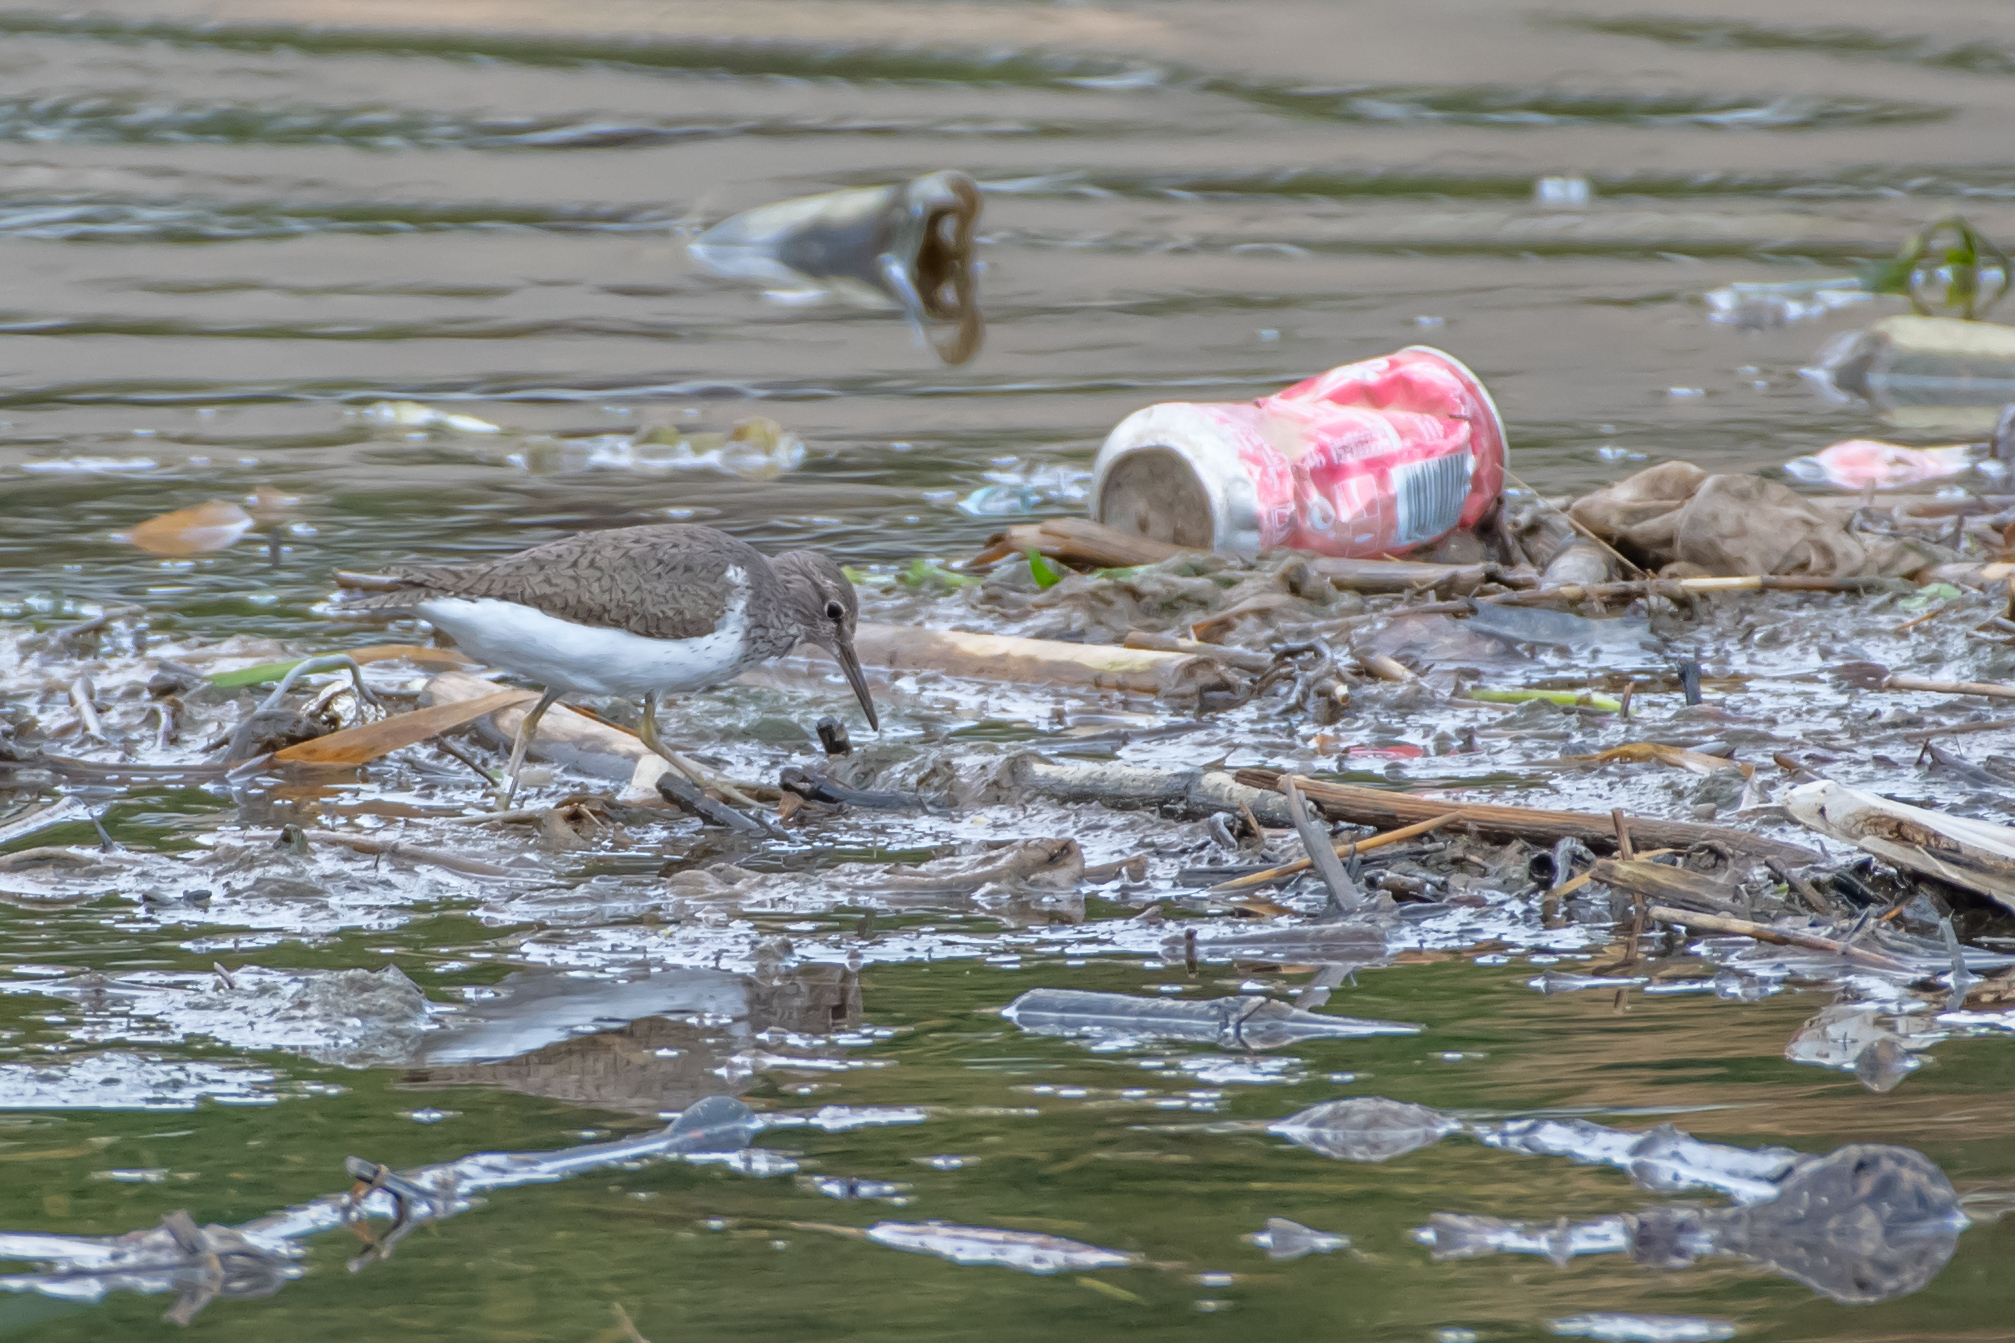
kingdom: Animalia
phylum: Chordata
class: Aves
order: Charadriiformes
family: Scolopacidae
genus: Actitis
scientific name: Actitis hypoleucos
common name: Common sandpiper
